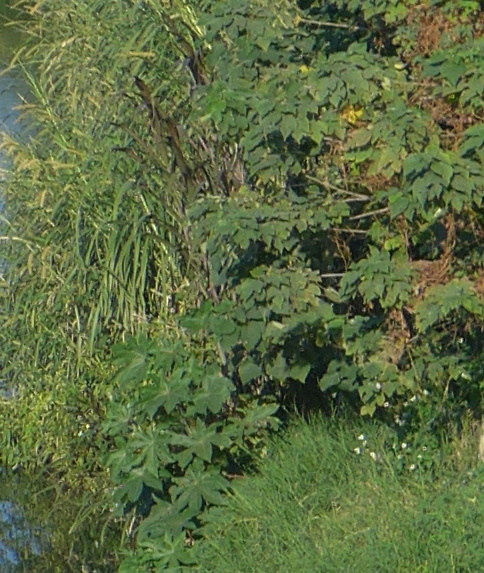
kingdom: Plantae
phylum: Tracheophyta
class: Magnoliopsida
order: Malpighiales
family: Euphorbiaceae
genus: Ricinus
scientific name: Ricinus communis
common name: Castor-oil-plant
